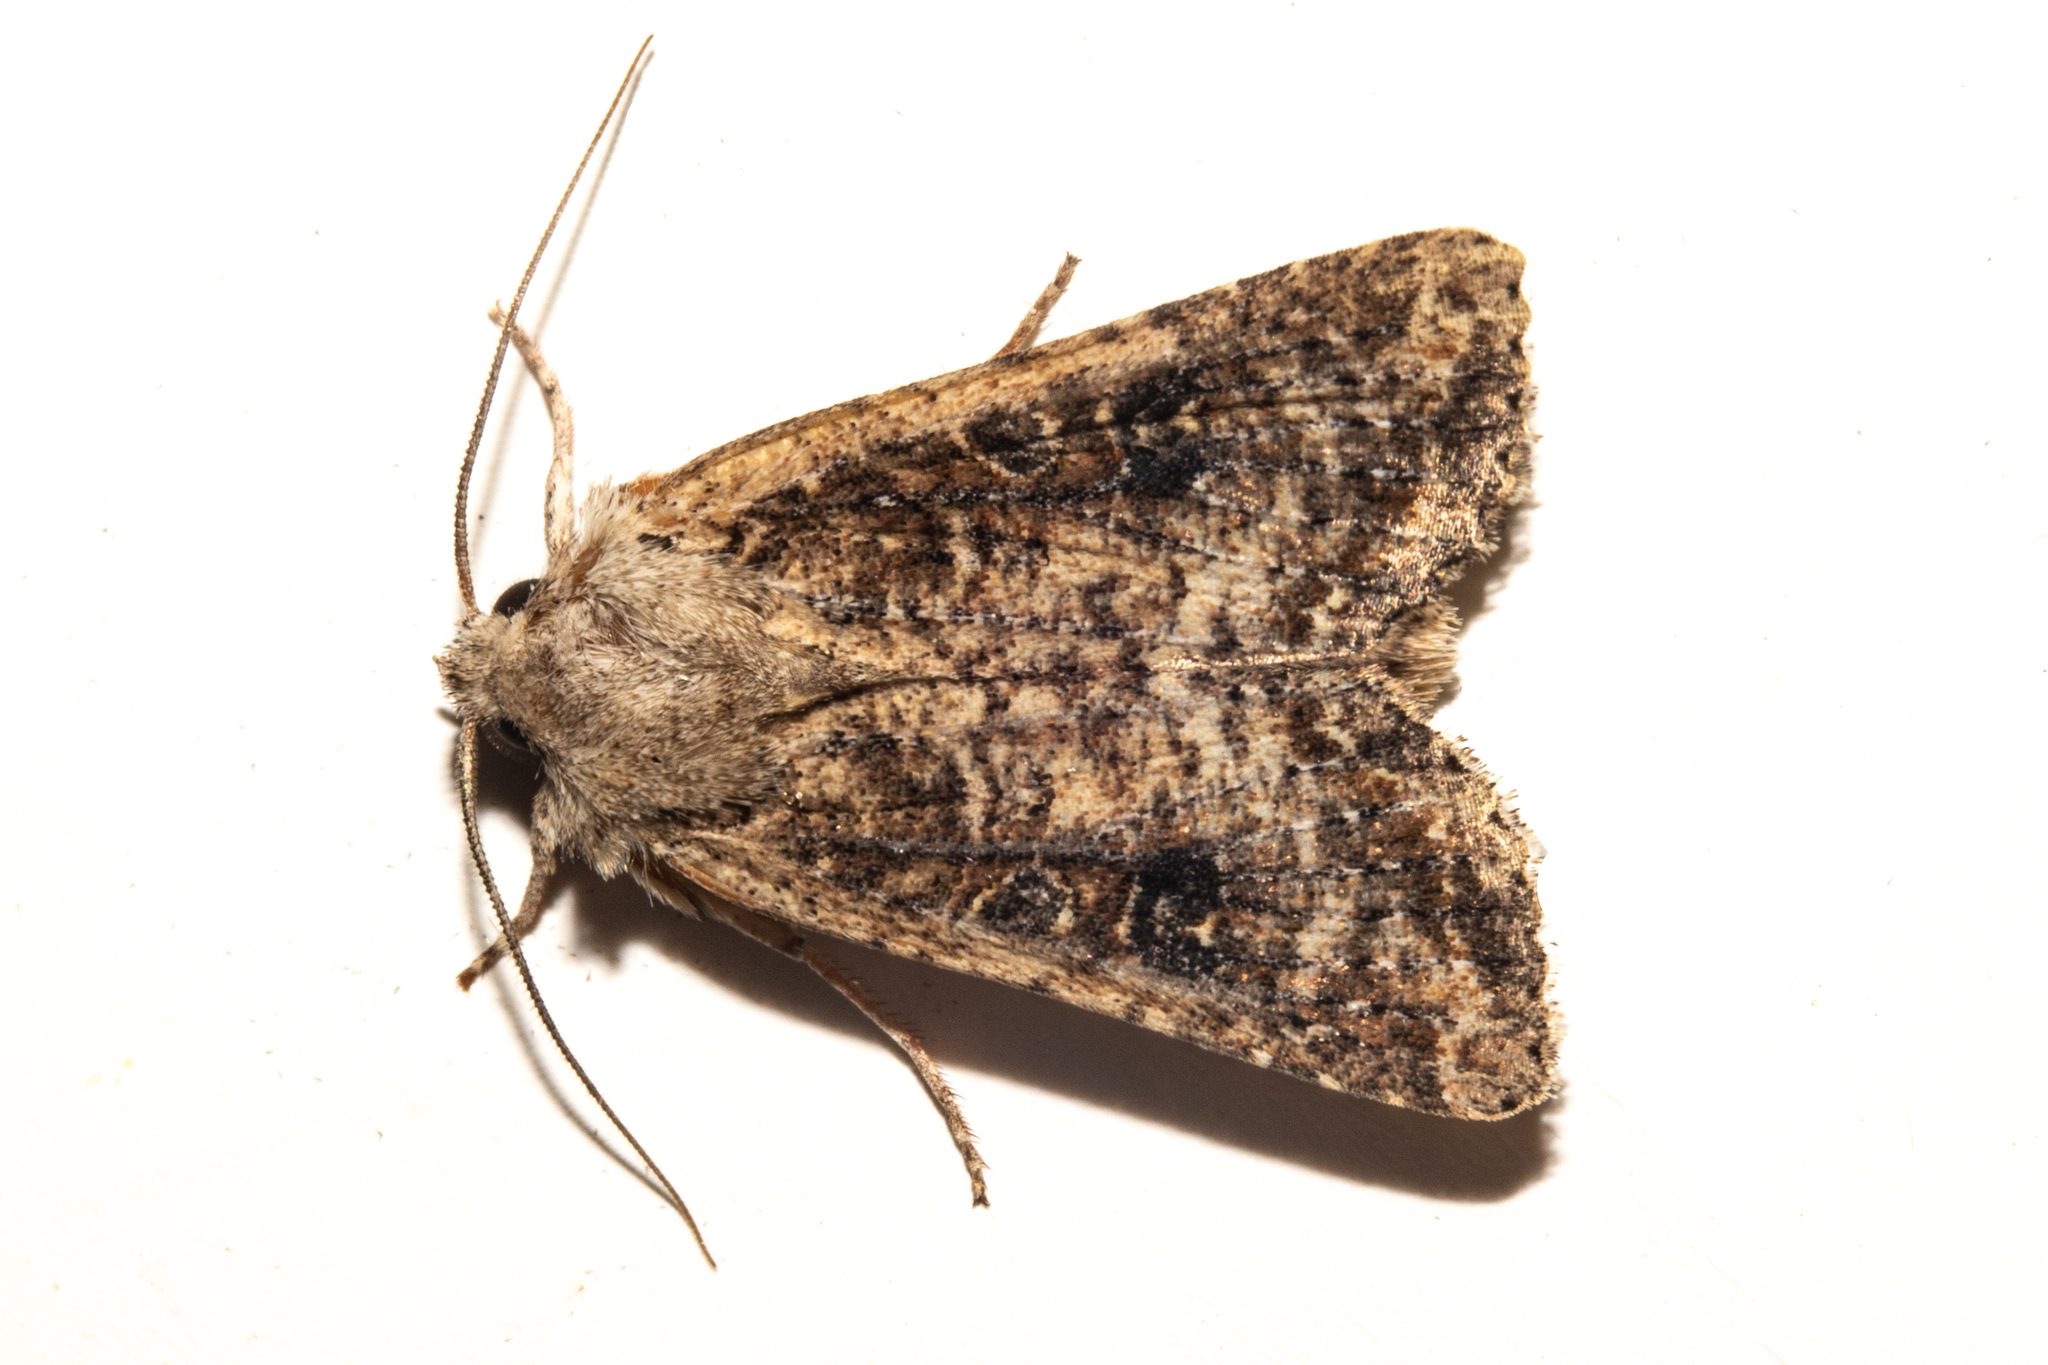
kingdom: Animalia
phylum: Arthropoda
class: Insecta
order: Lepidoptera
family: Noctuidae
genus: Ichneutica
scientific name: Ichneutica morosa
